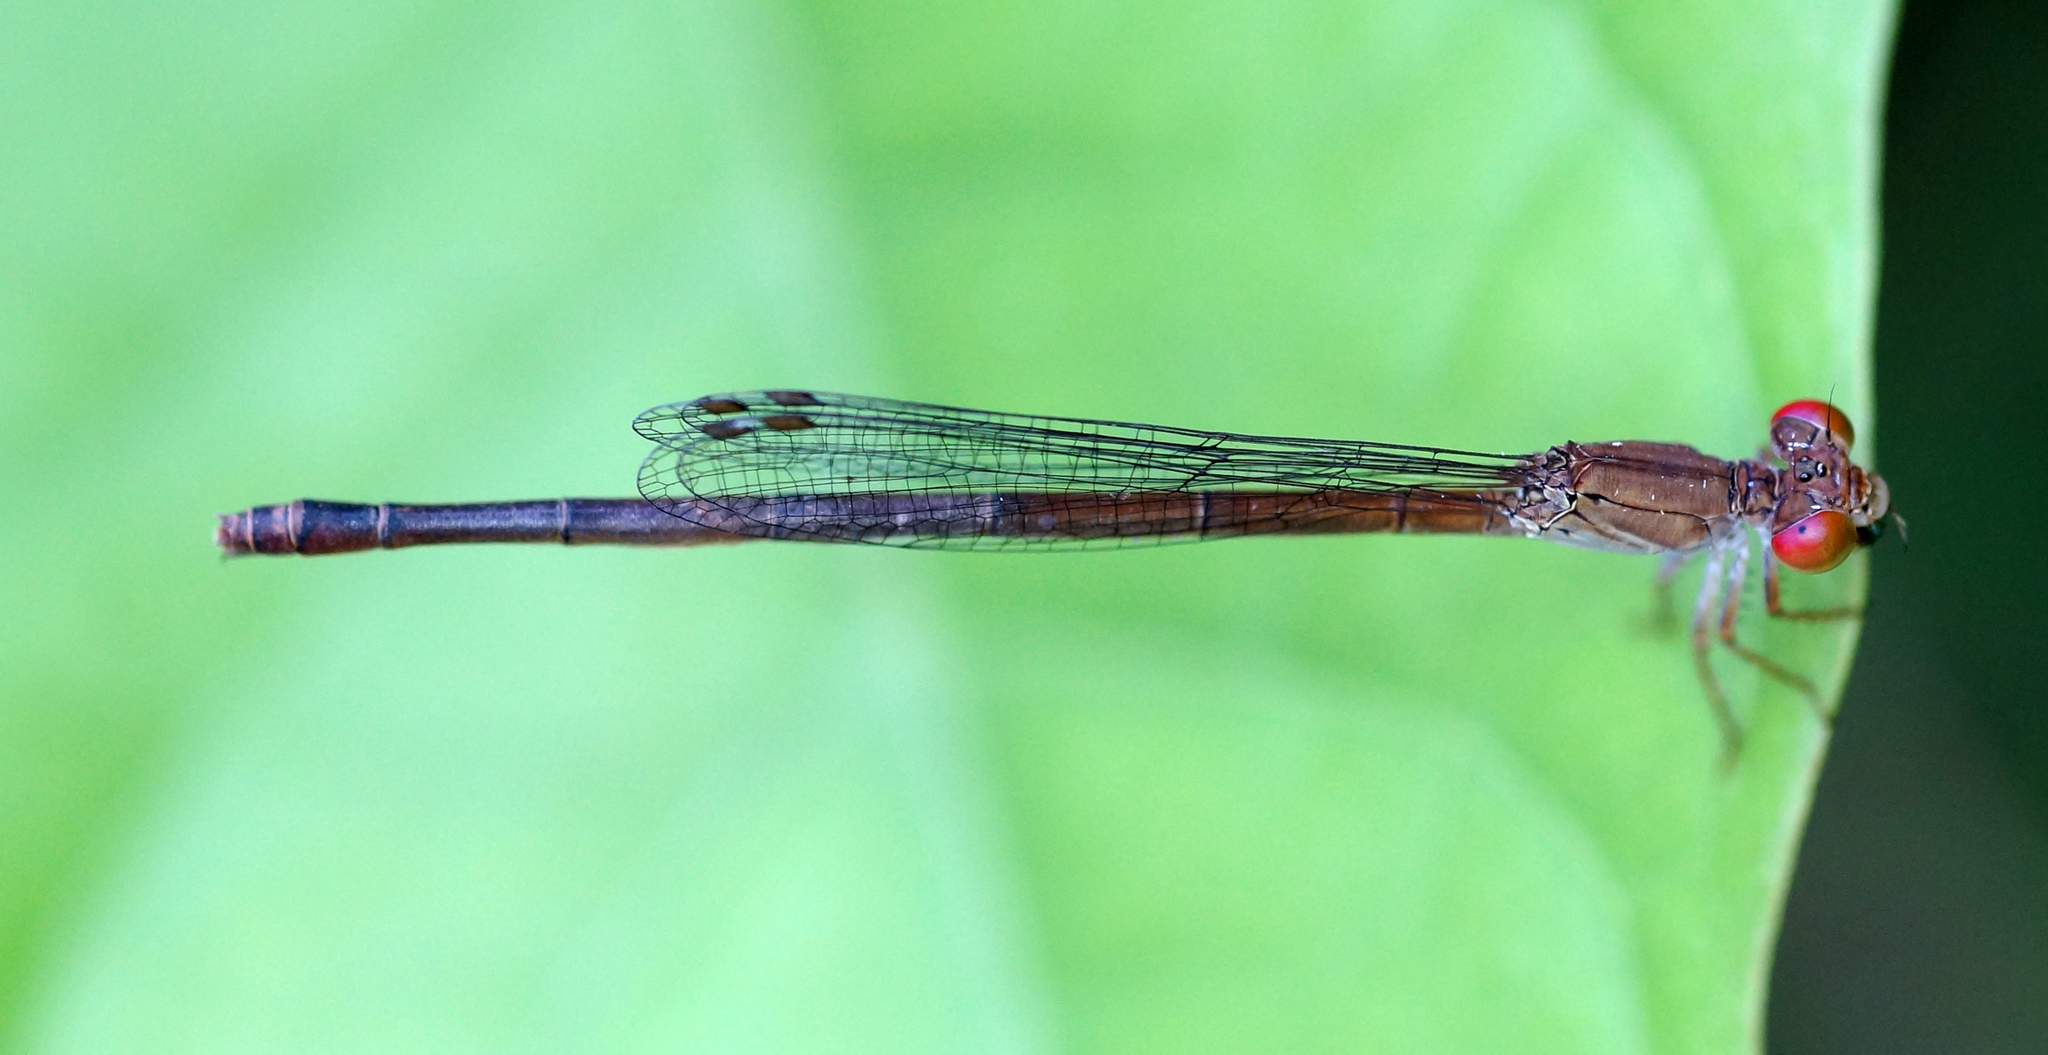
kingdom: Animalia
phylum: Arthropoda
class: Insecta
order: Odonata
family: Coenagrionidae
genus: Ceriagrion
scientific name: Ceriagrion praetermissum
